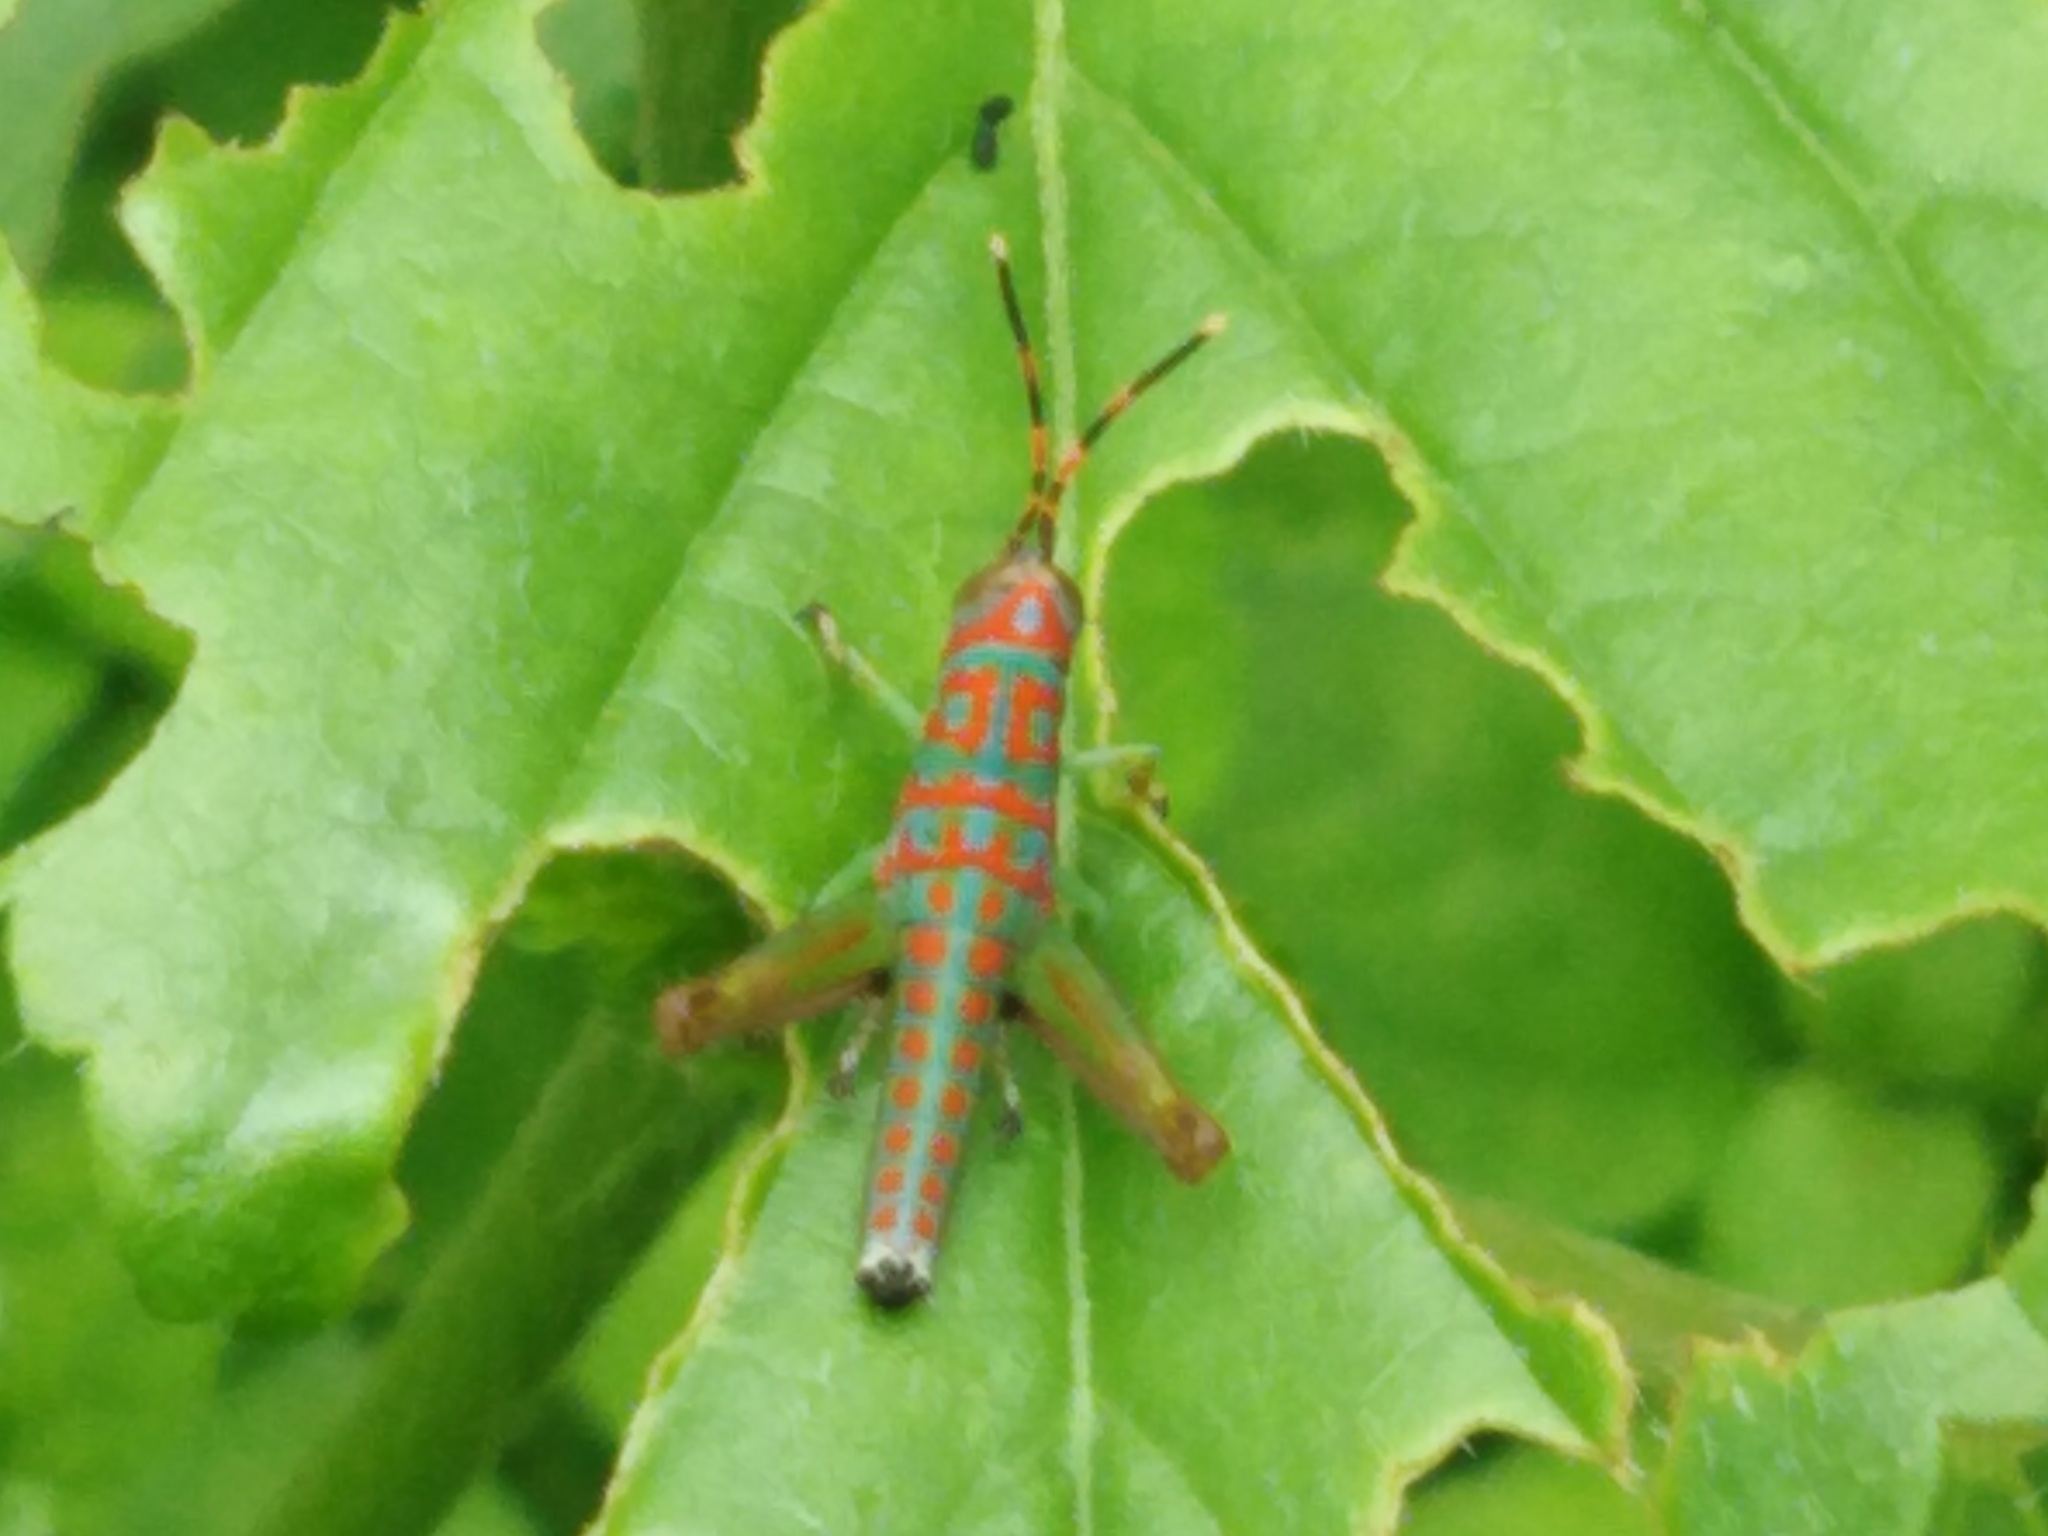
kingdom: Animalia
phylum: Arthropoda
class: Insecta
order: Orthoptera
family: Acrididae
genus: Pirithoicus
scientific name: Pirithoicus ophthalmicus
